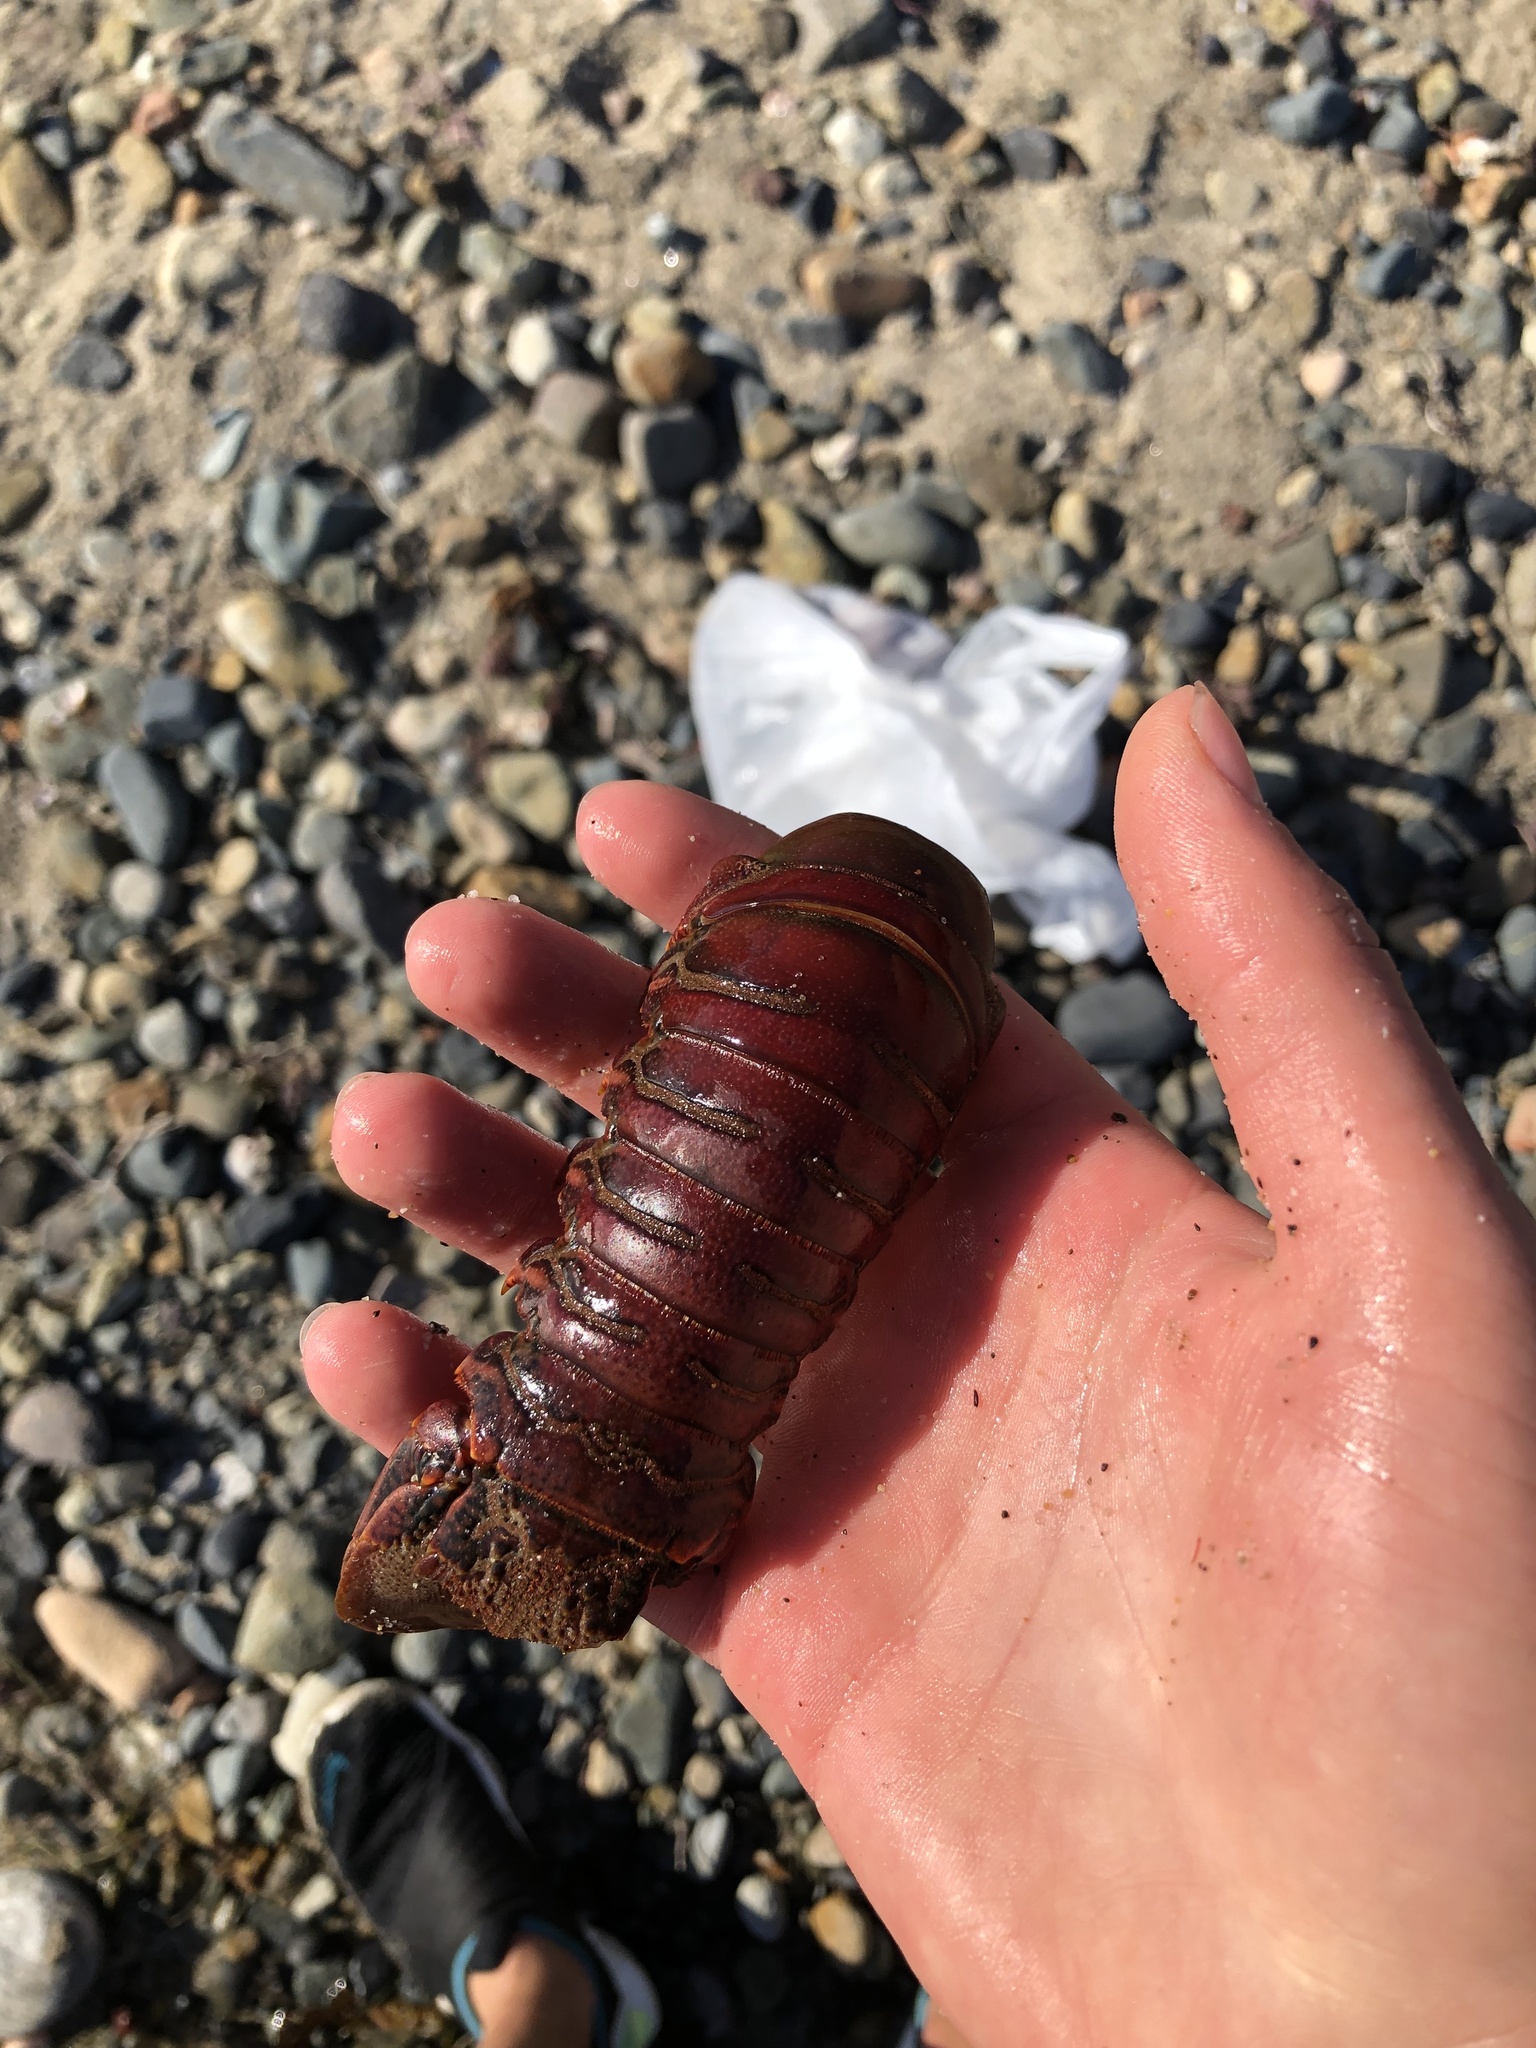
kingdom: Animalia
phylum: Arthropoda
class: Malacostraca
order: Decapoda
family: Palinuridae
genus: Panulirus
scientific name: Panulirus interruptus
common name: California spiny lobster
